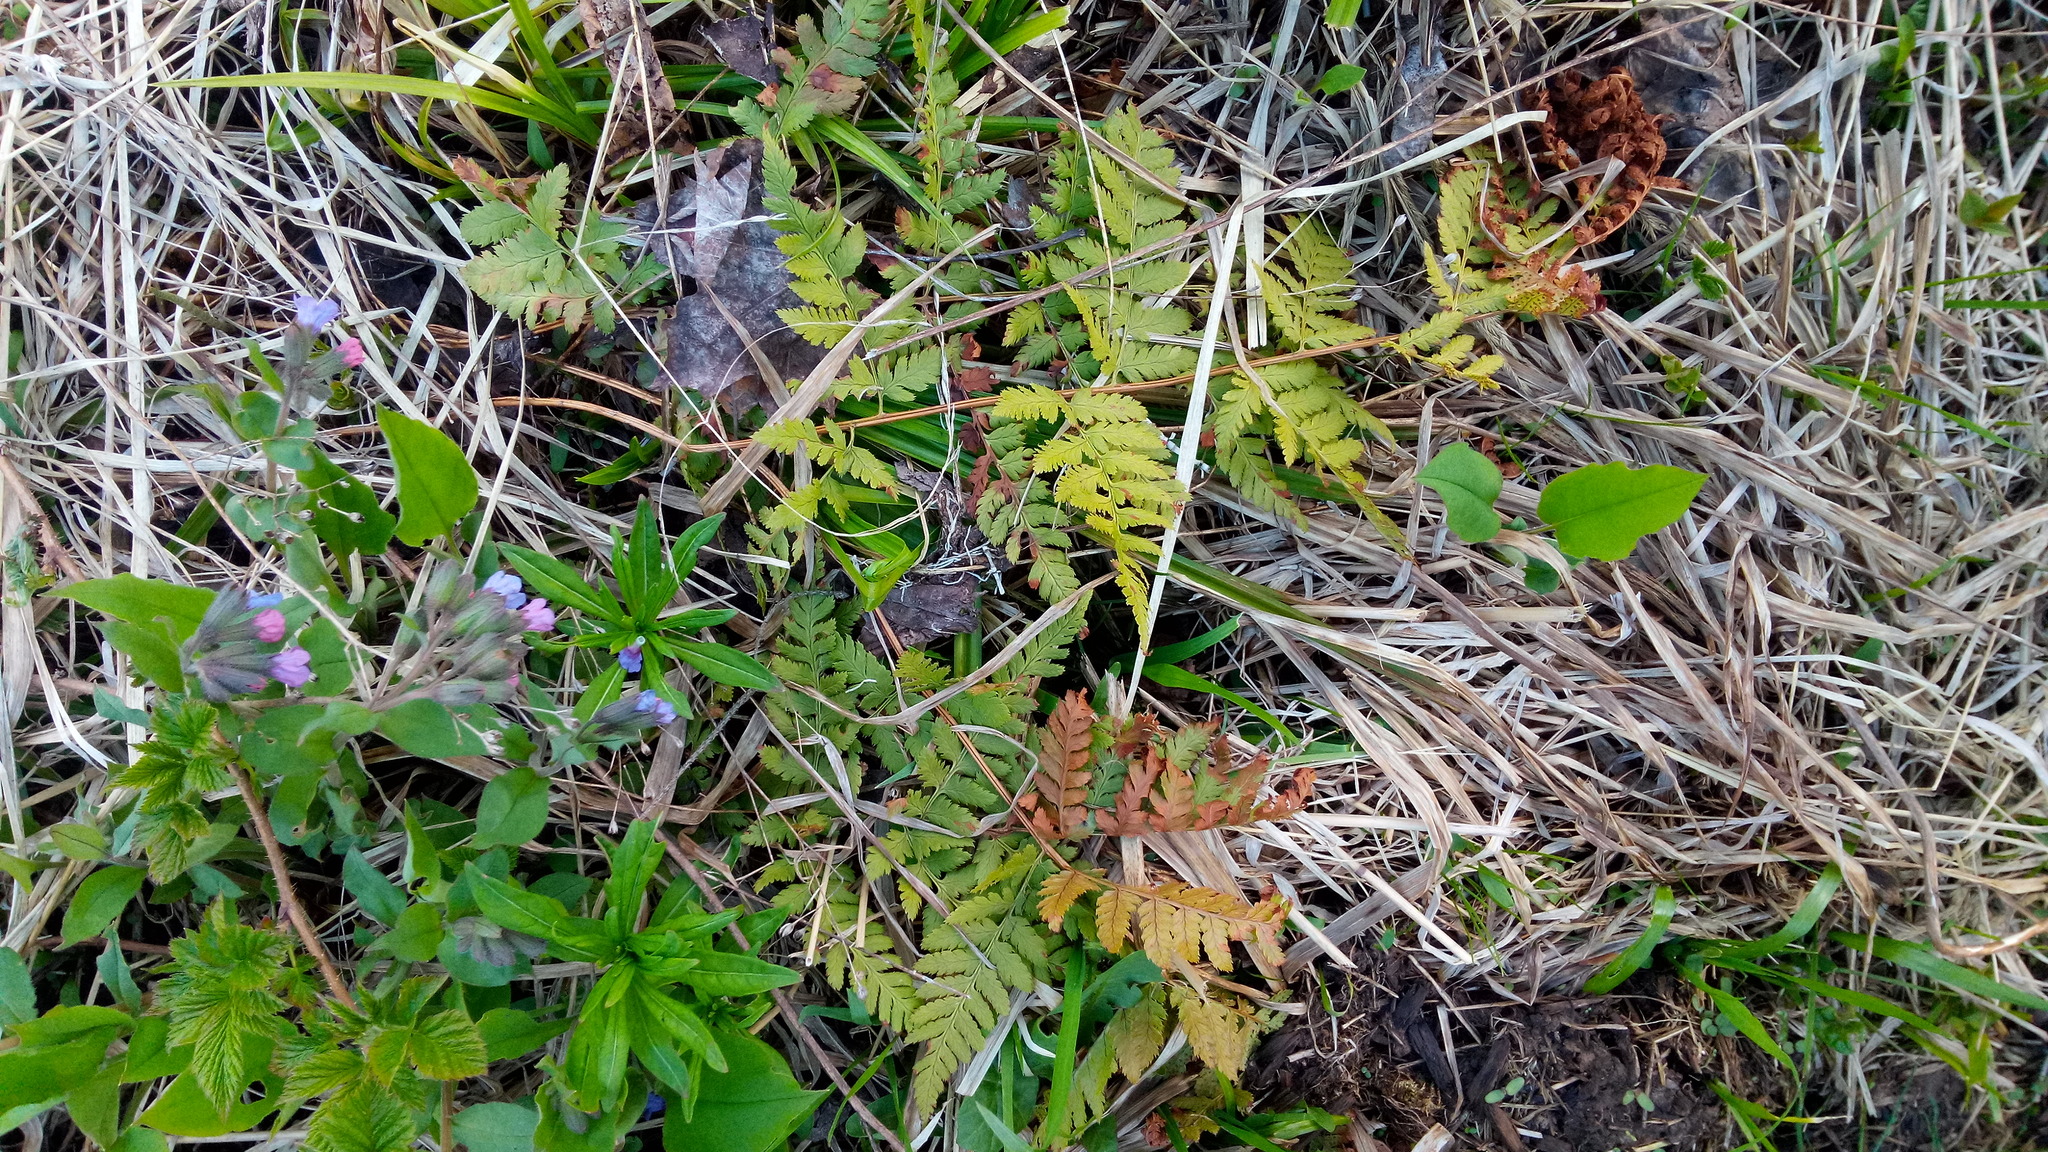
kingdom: Plantae
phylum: Tracheophyta
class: Polypodiopsida
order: Polypodiales
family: Dryopteridaceae
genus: Dryopteris
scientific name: Dryopteris carthusiana
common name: Narrow buckler-fern
